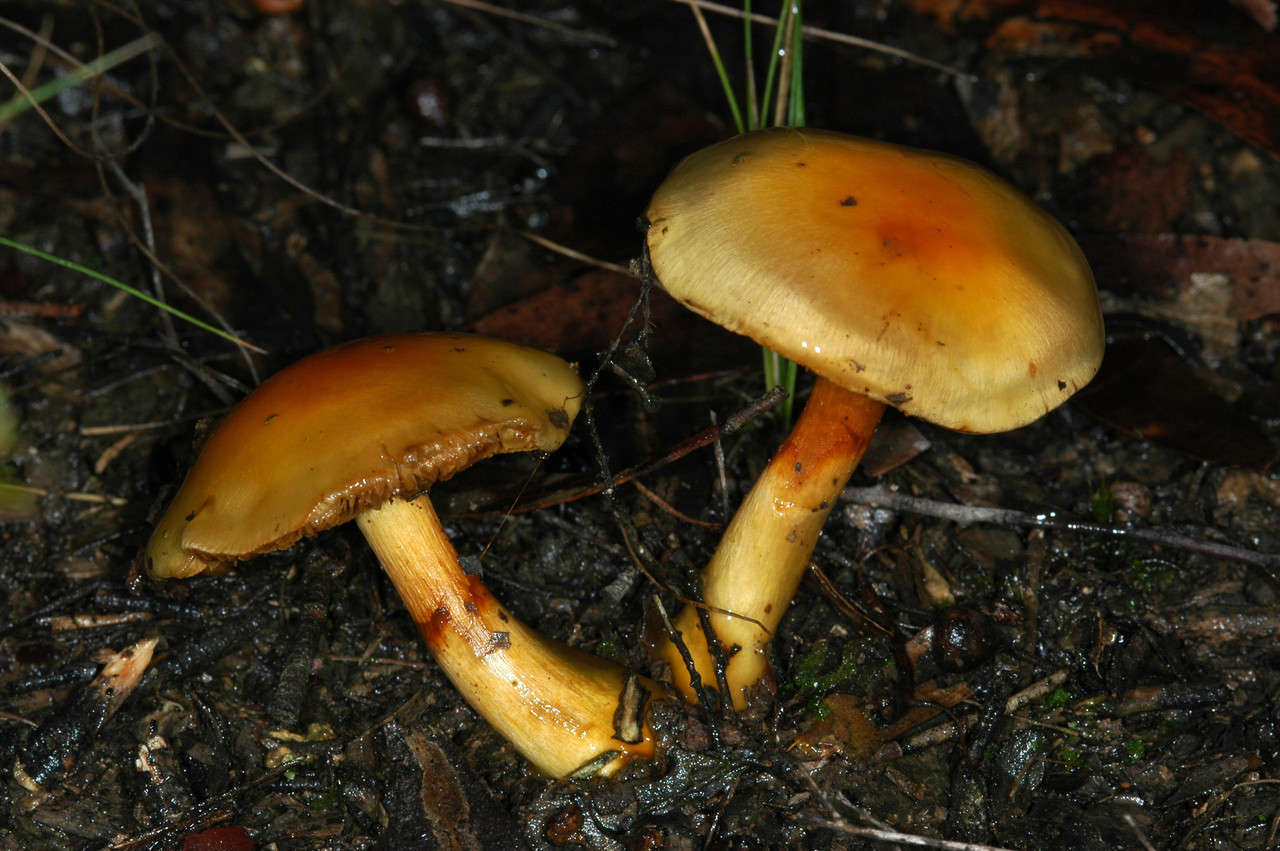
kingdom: Fungi
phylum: Basidiomycota
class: Agaricomycetes
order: Agaricales
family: Cortinariaceae
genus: Cortinarius
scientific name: Cortinarius sinapicolor
